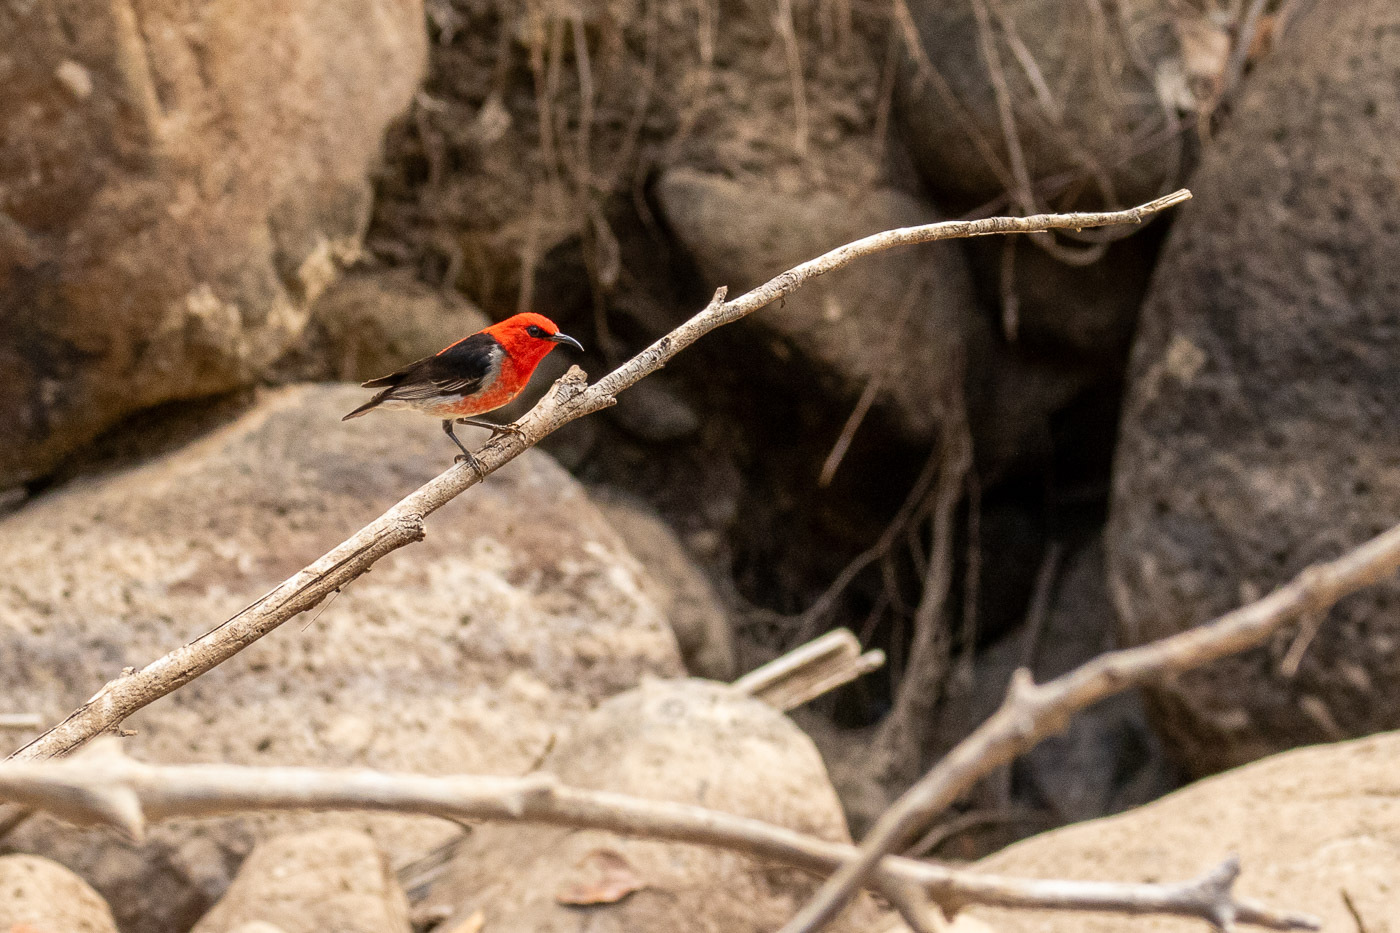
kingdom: Animalia
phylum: Chordata
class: Aves
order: Passeriformes
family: Meliphagidae
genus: Myzomela
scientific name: Myzomela sanguinolenta
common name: Scarlet myzomela
